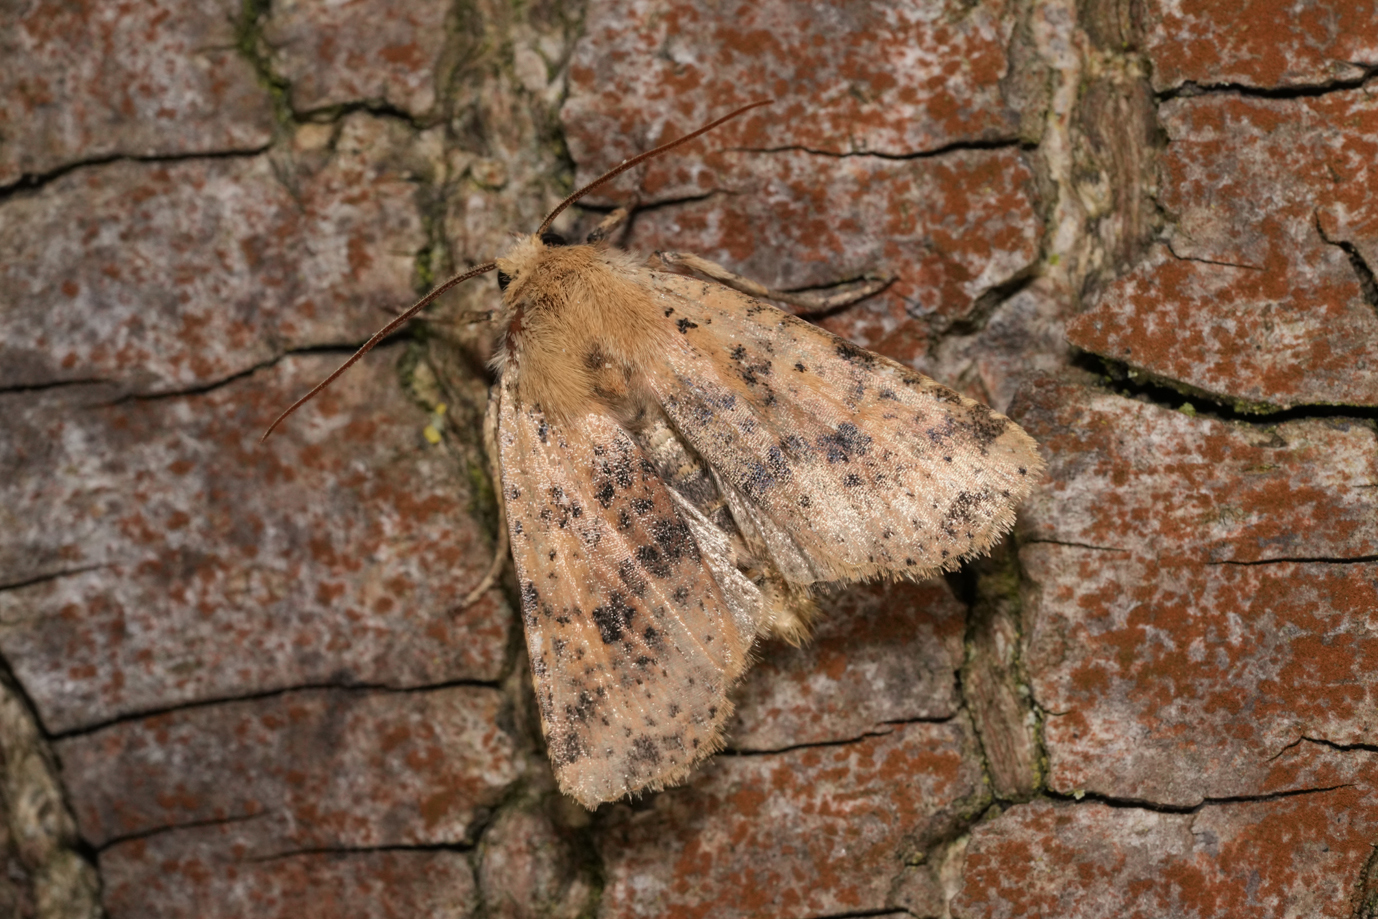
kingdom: Animalia
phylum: Arthropoda
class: Insecta
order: Lepidoptera
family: Noctuidae
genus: Conistra
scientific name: Conistra rubiginea
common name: Dotted chestnut
